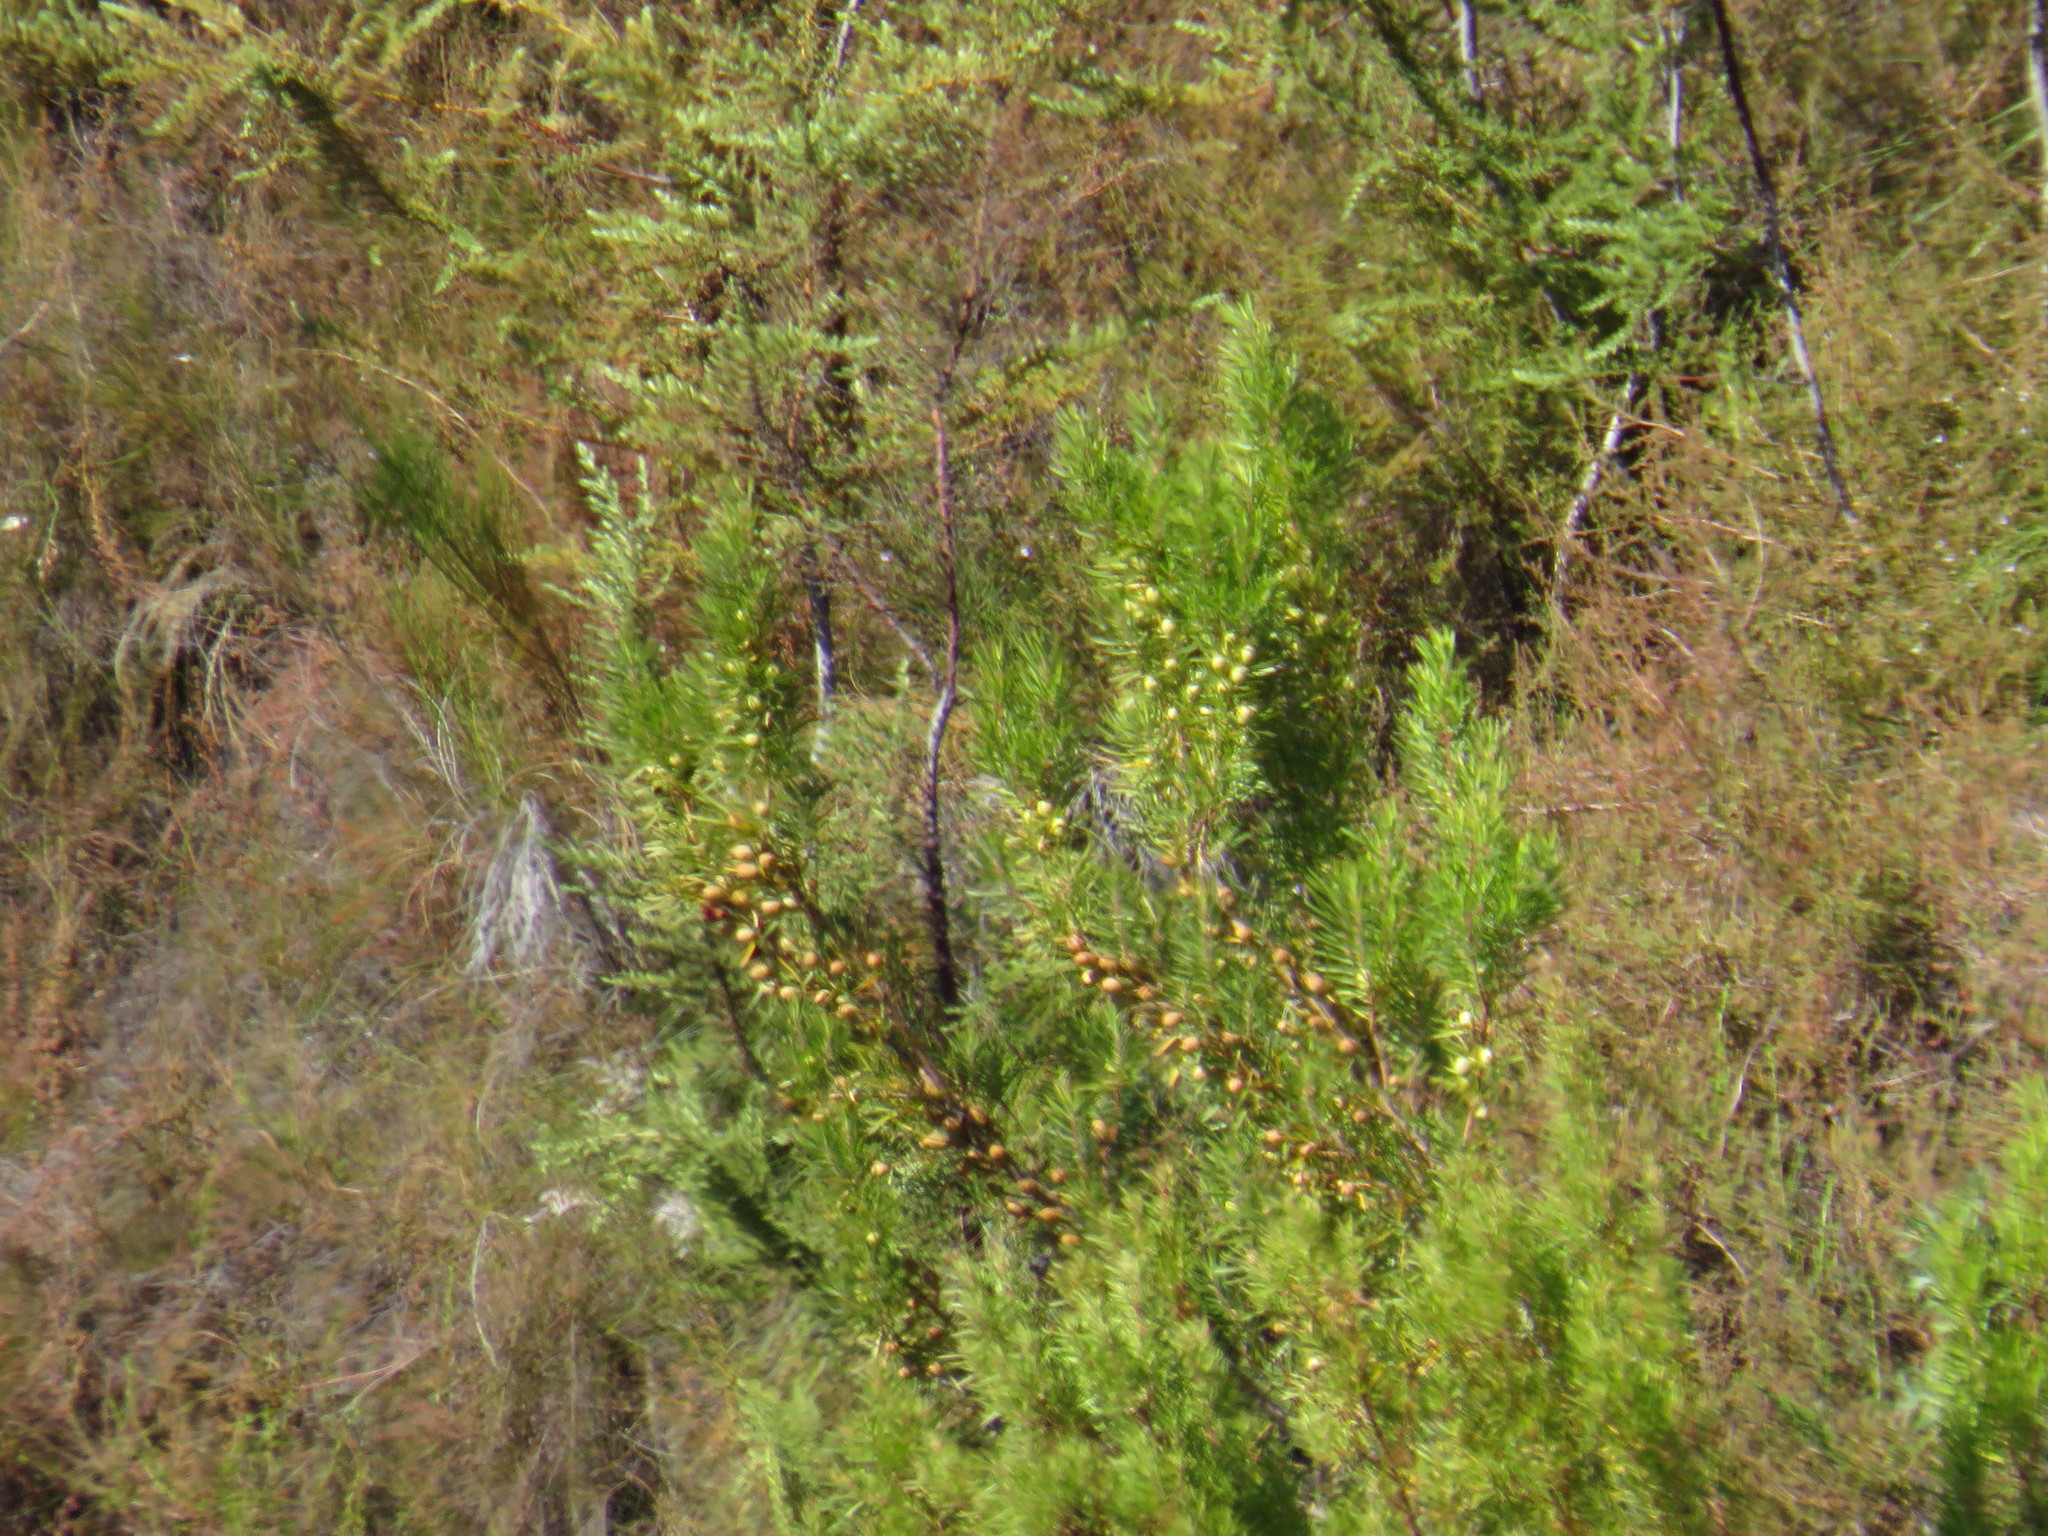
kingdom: Plantae
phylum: Tracheophyta
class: Magnoliopsida
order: Proteales
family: Proteaceae
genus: Leucadendron
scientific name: Leucadendron salicifolium
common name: Common stream conebush
